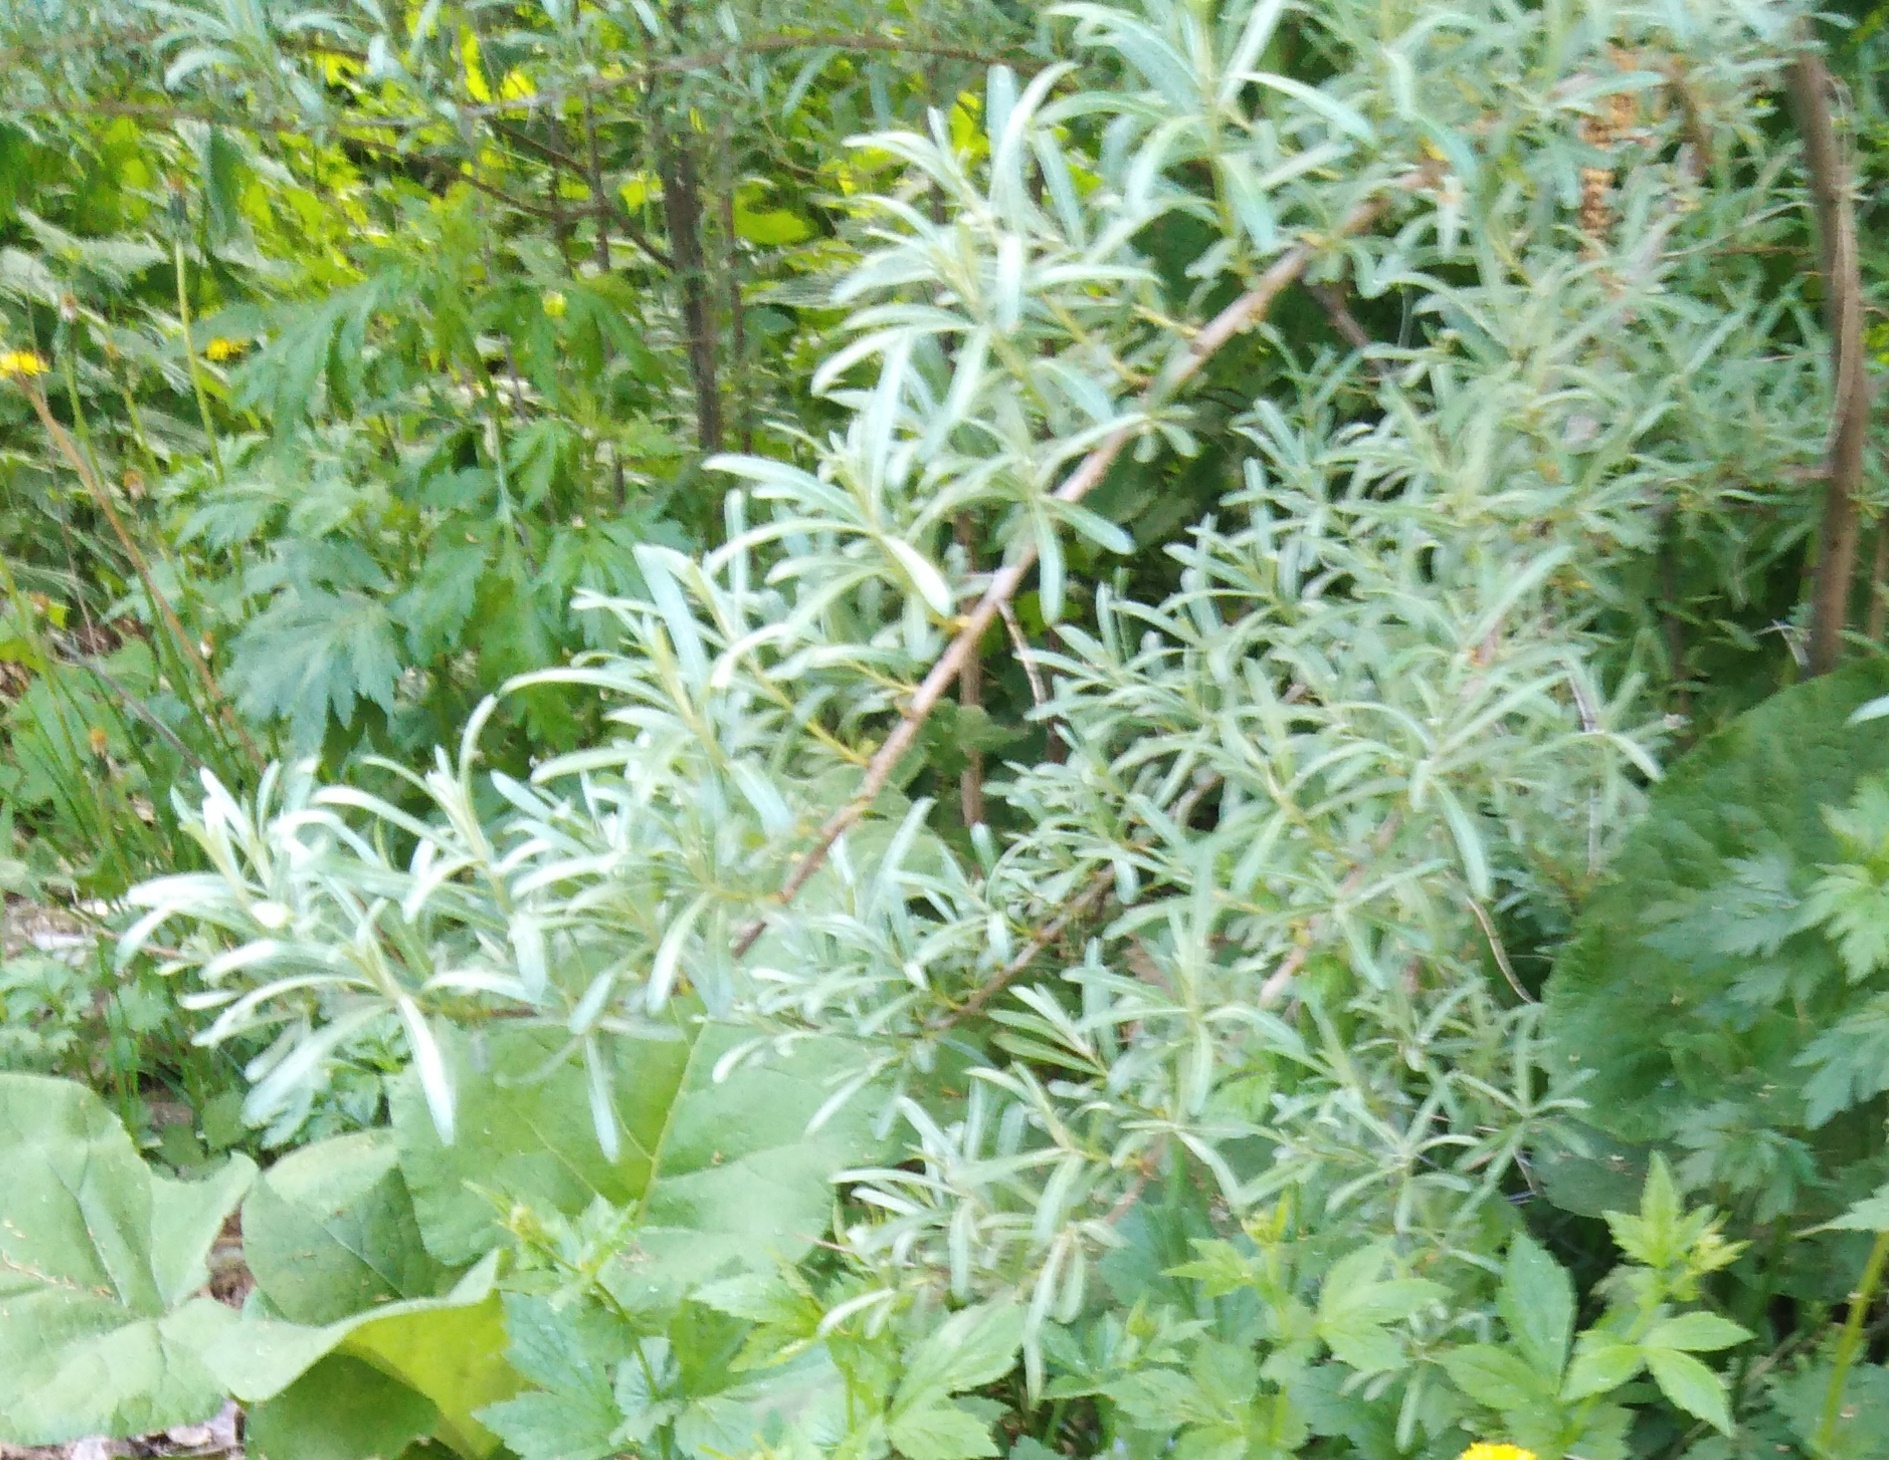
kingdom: Plantae
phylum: Tracheophyta
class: Magnoliopsida
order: Rosales
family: Elaeagnaceae
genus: Hippophae
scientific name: Hippophae rhamnoides
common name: Sea-buckthorn
